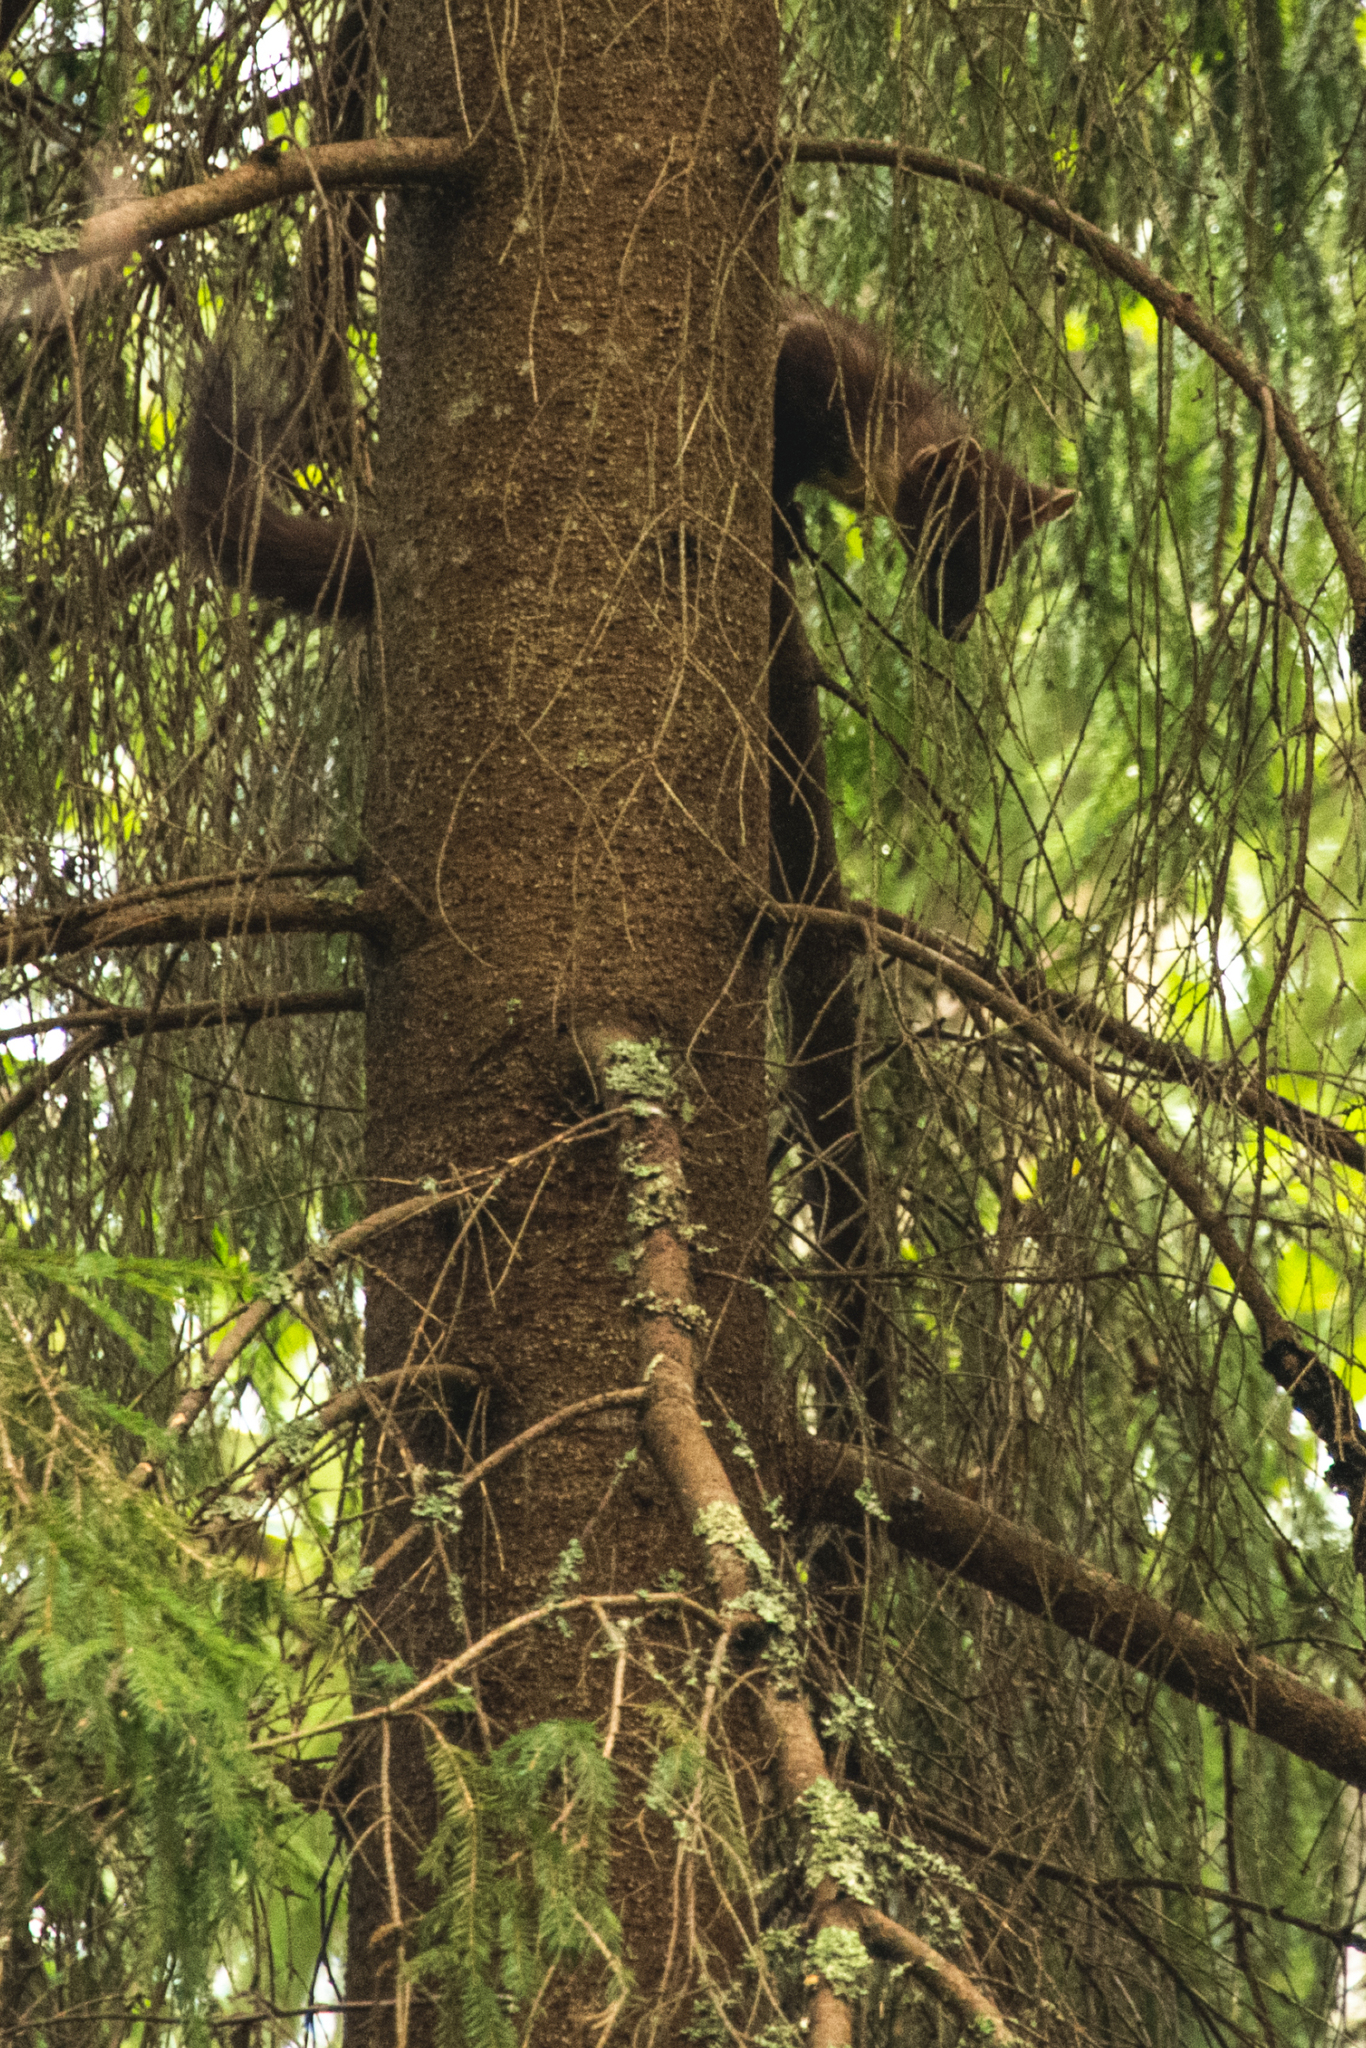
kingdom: Animalia
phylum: Chordata
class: Mammalia
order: Carnivora
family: Mustelidae
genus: Martes
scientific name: Martes martes
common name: European pine marten
